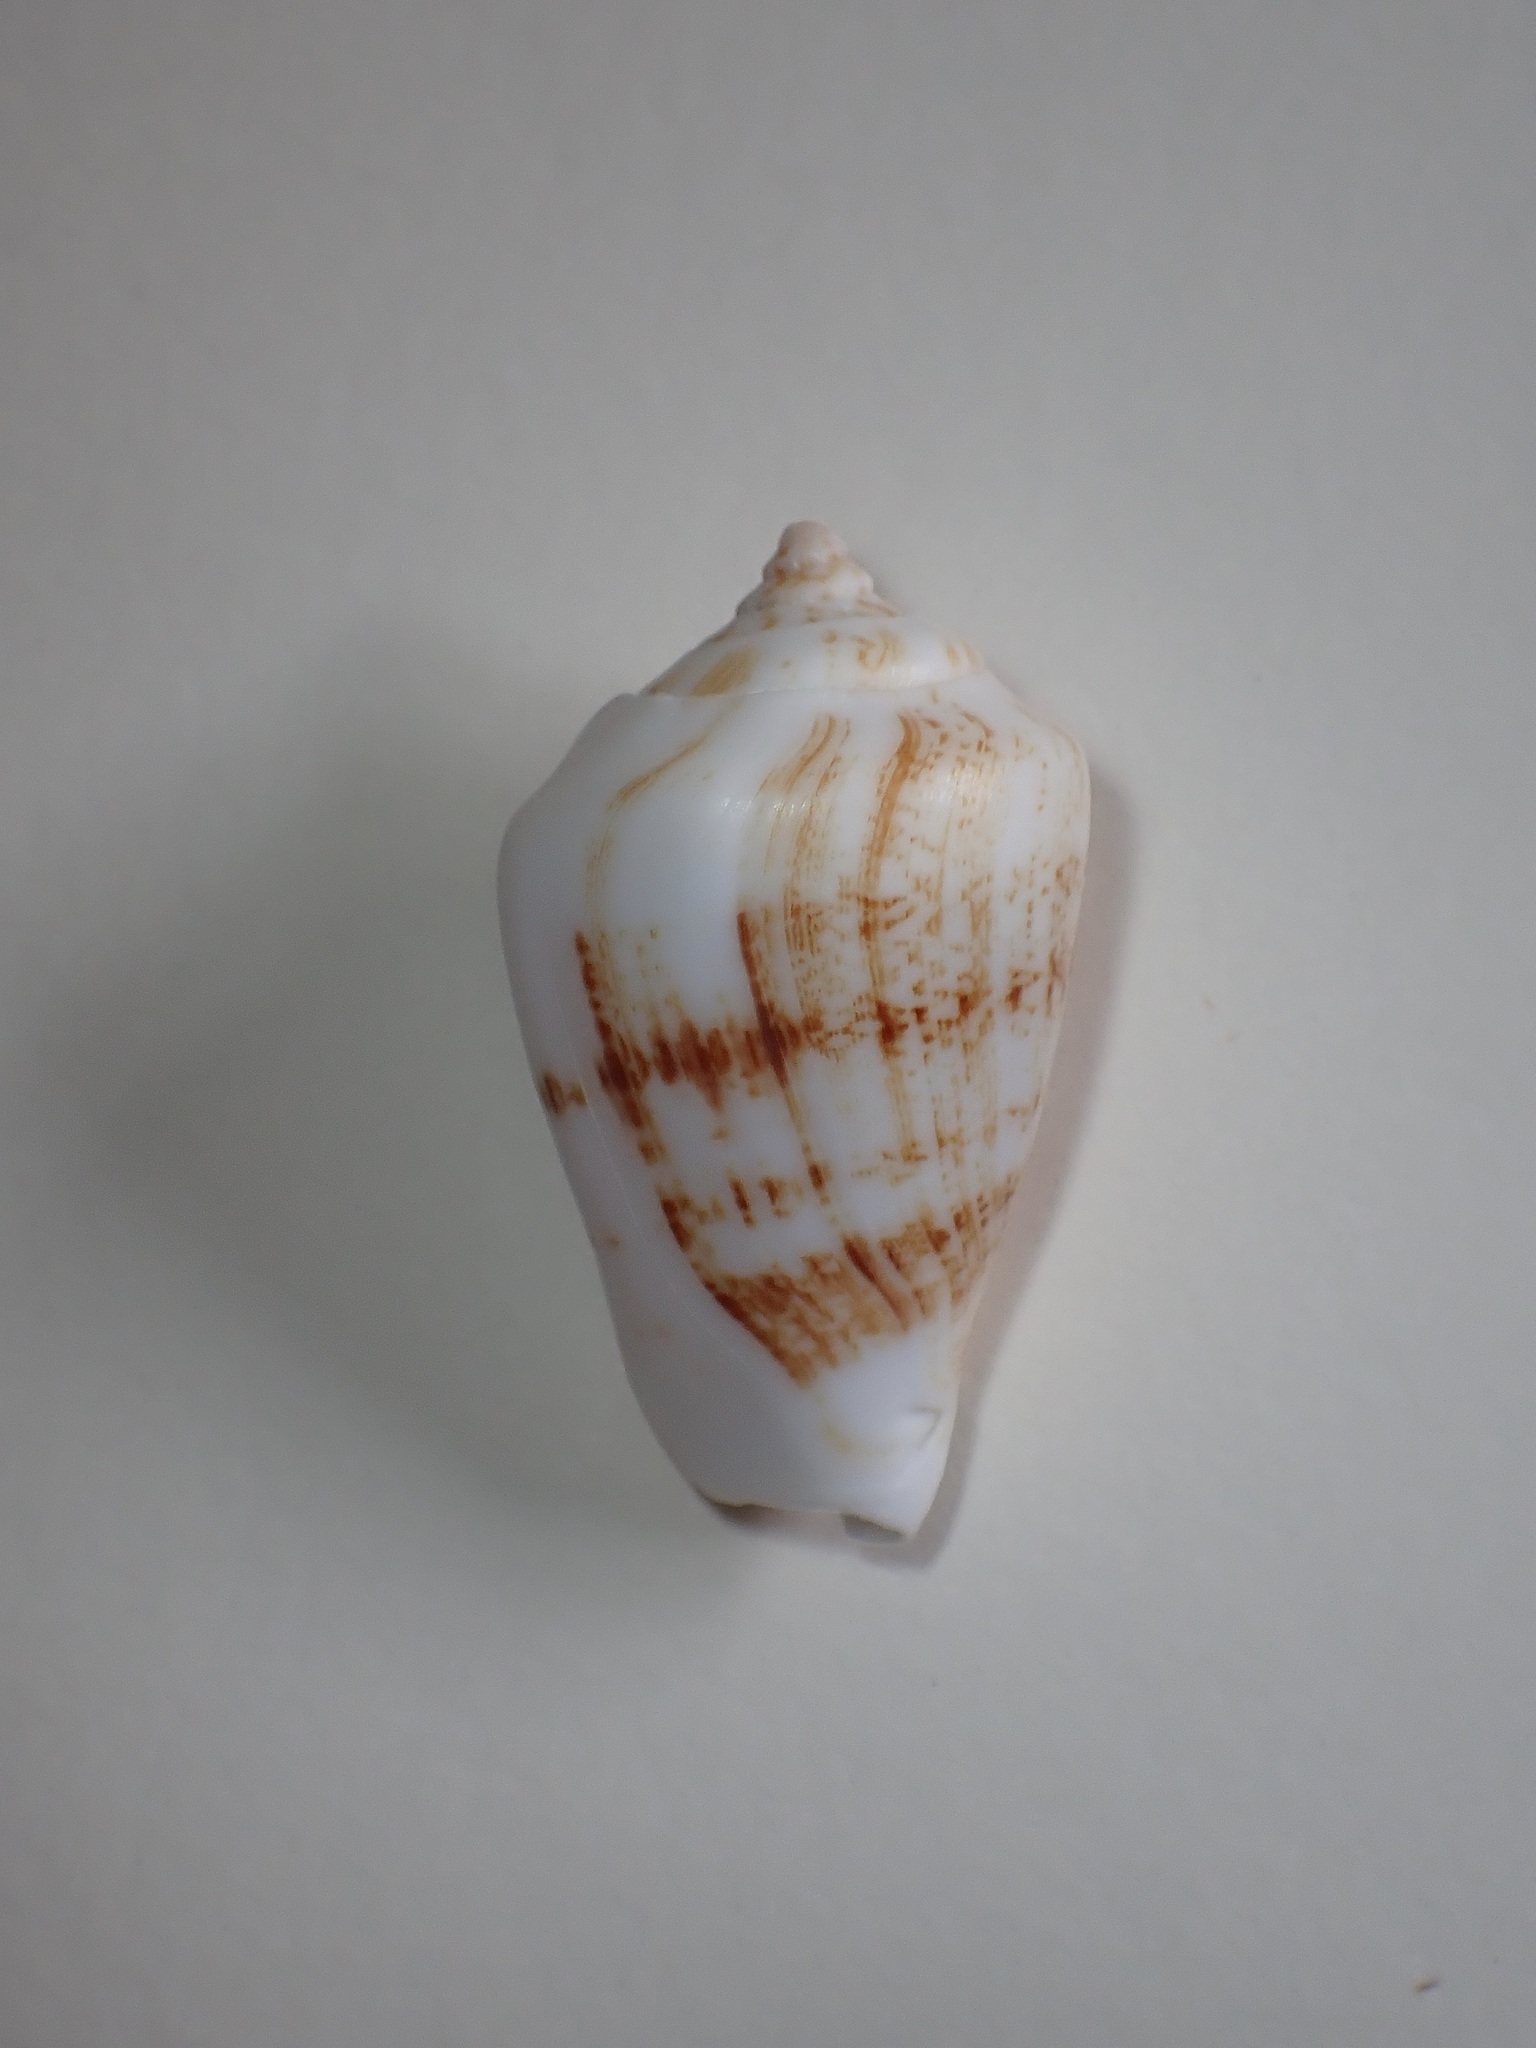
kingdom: Animalia
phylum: Mollusca
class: Gastropoda
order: Littorinimorpha
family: Strombidae
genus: Conomurex
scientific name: Conomurex persicus
